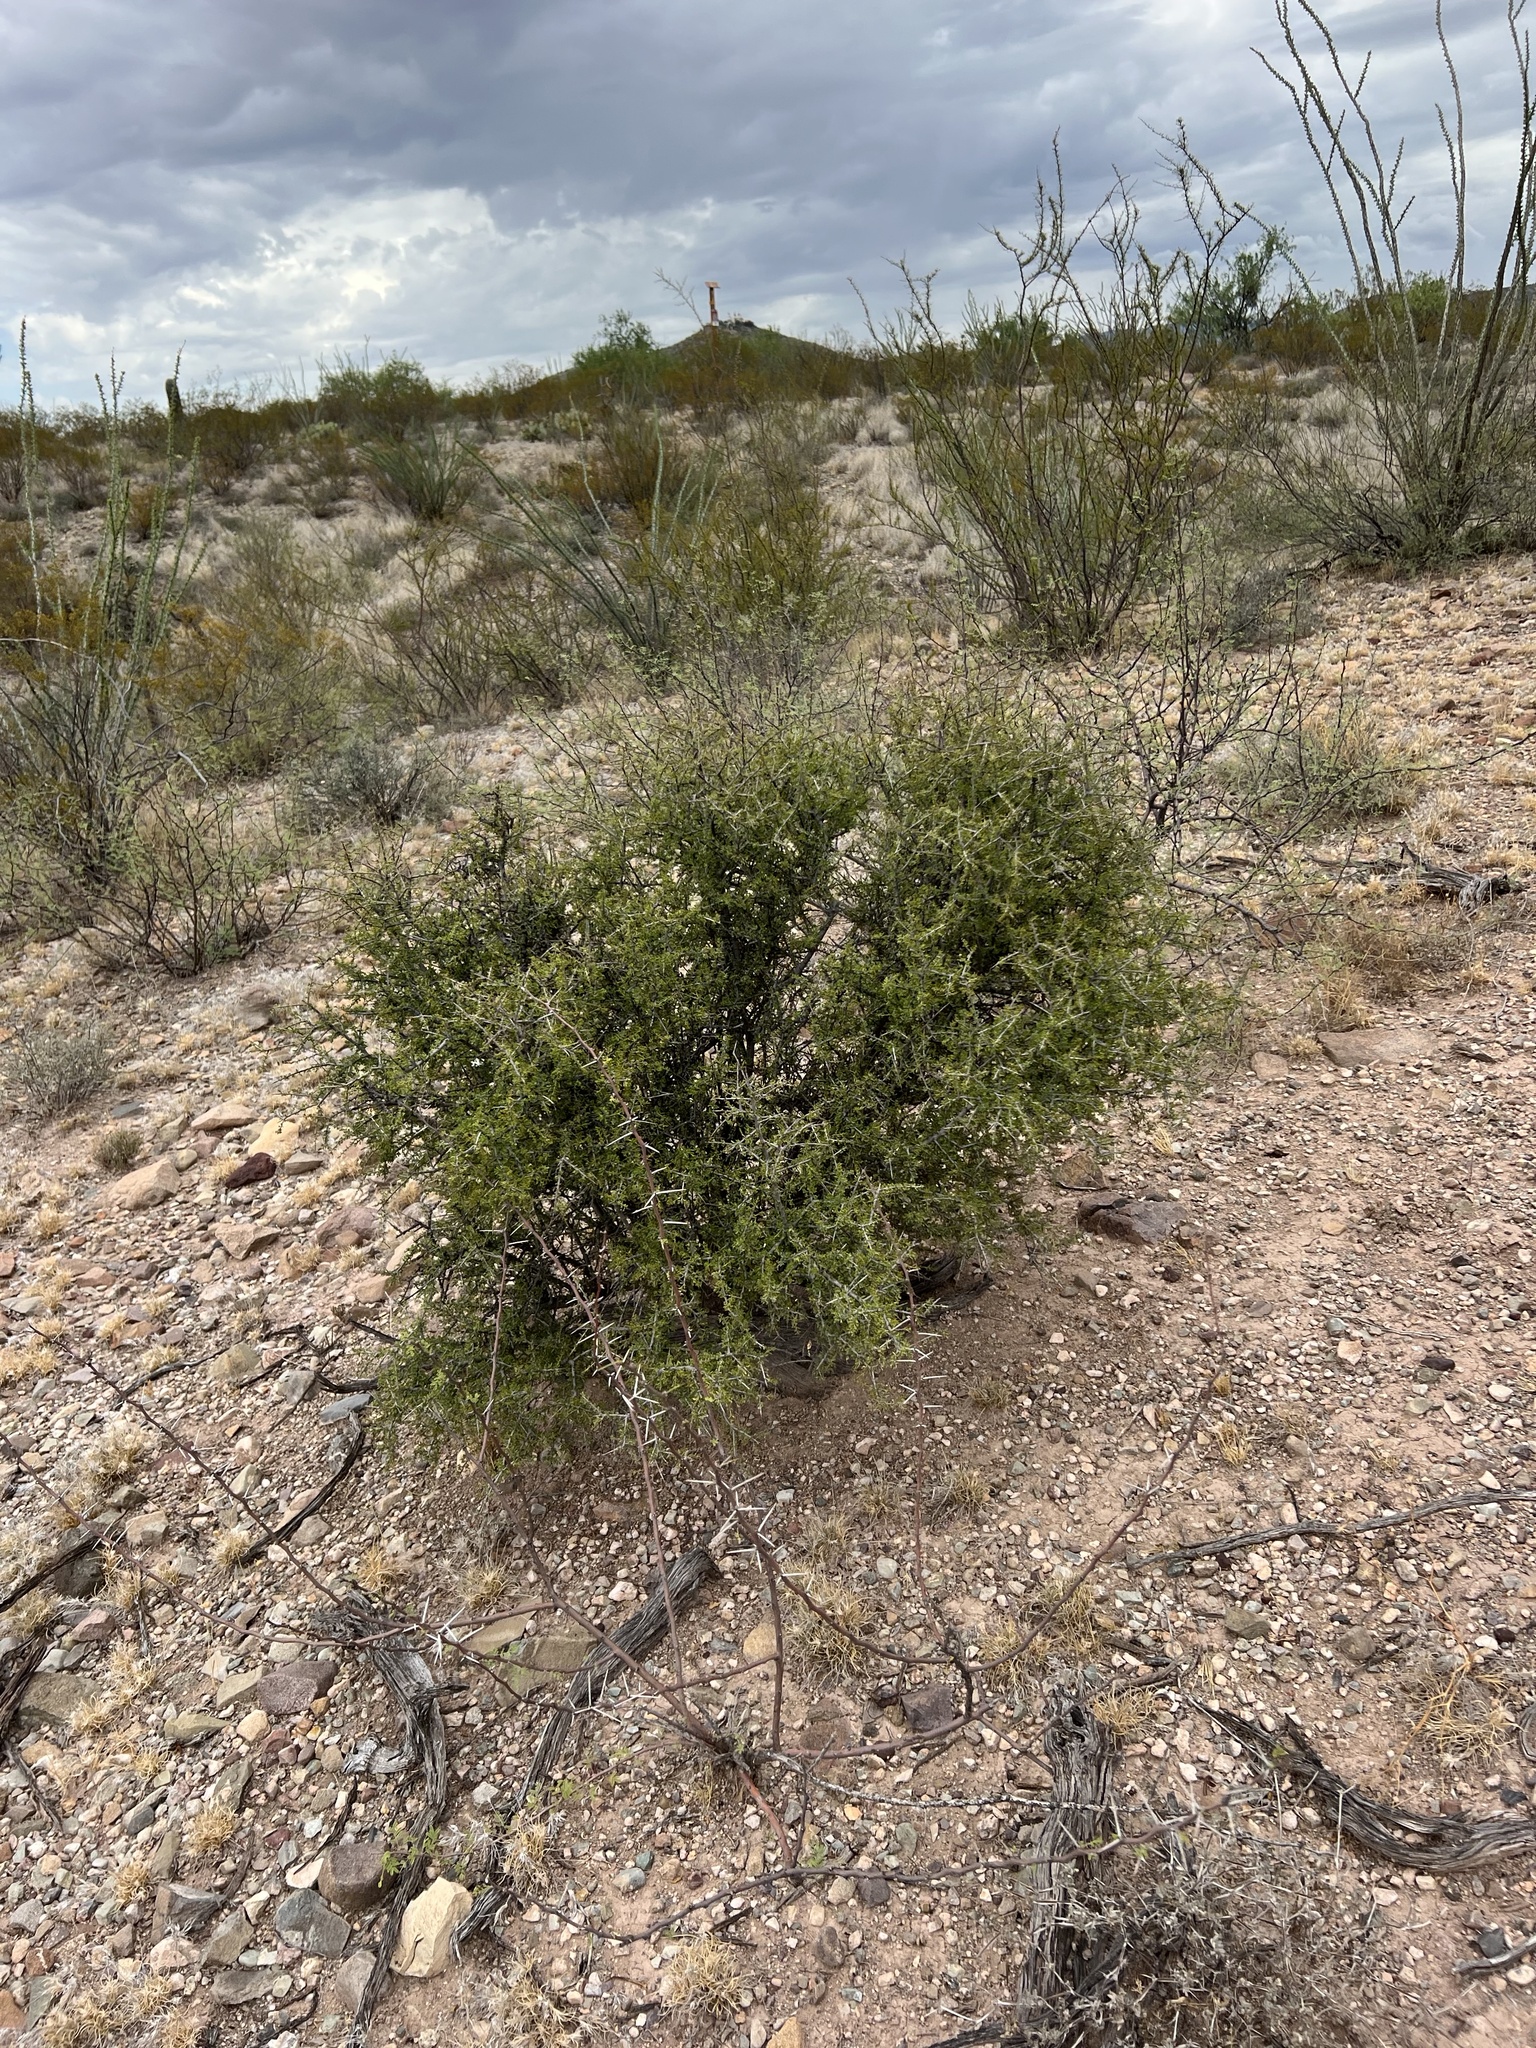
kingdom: Plantae
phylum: Tracheophyta
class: Magnoliopsida
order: Rosales
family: Rhamnaceae
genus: Condalia
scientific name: Condalia warnockii
